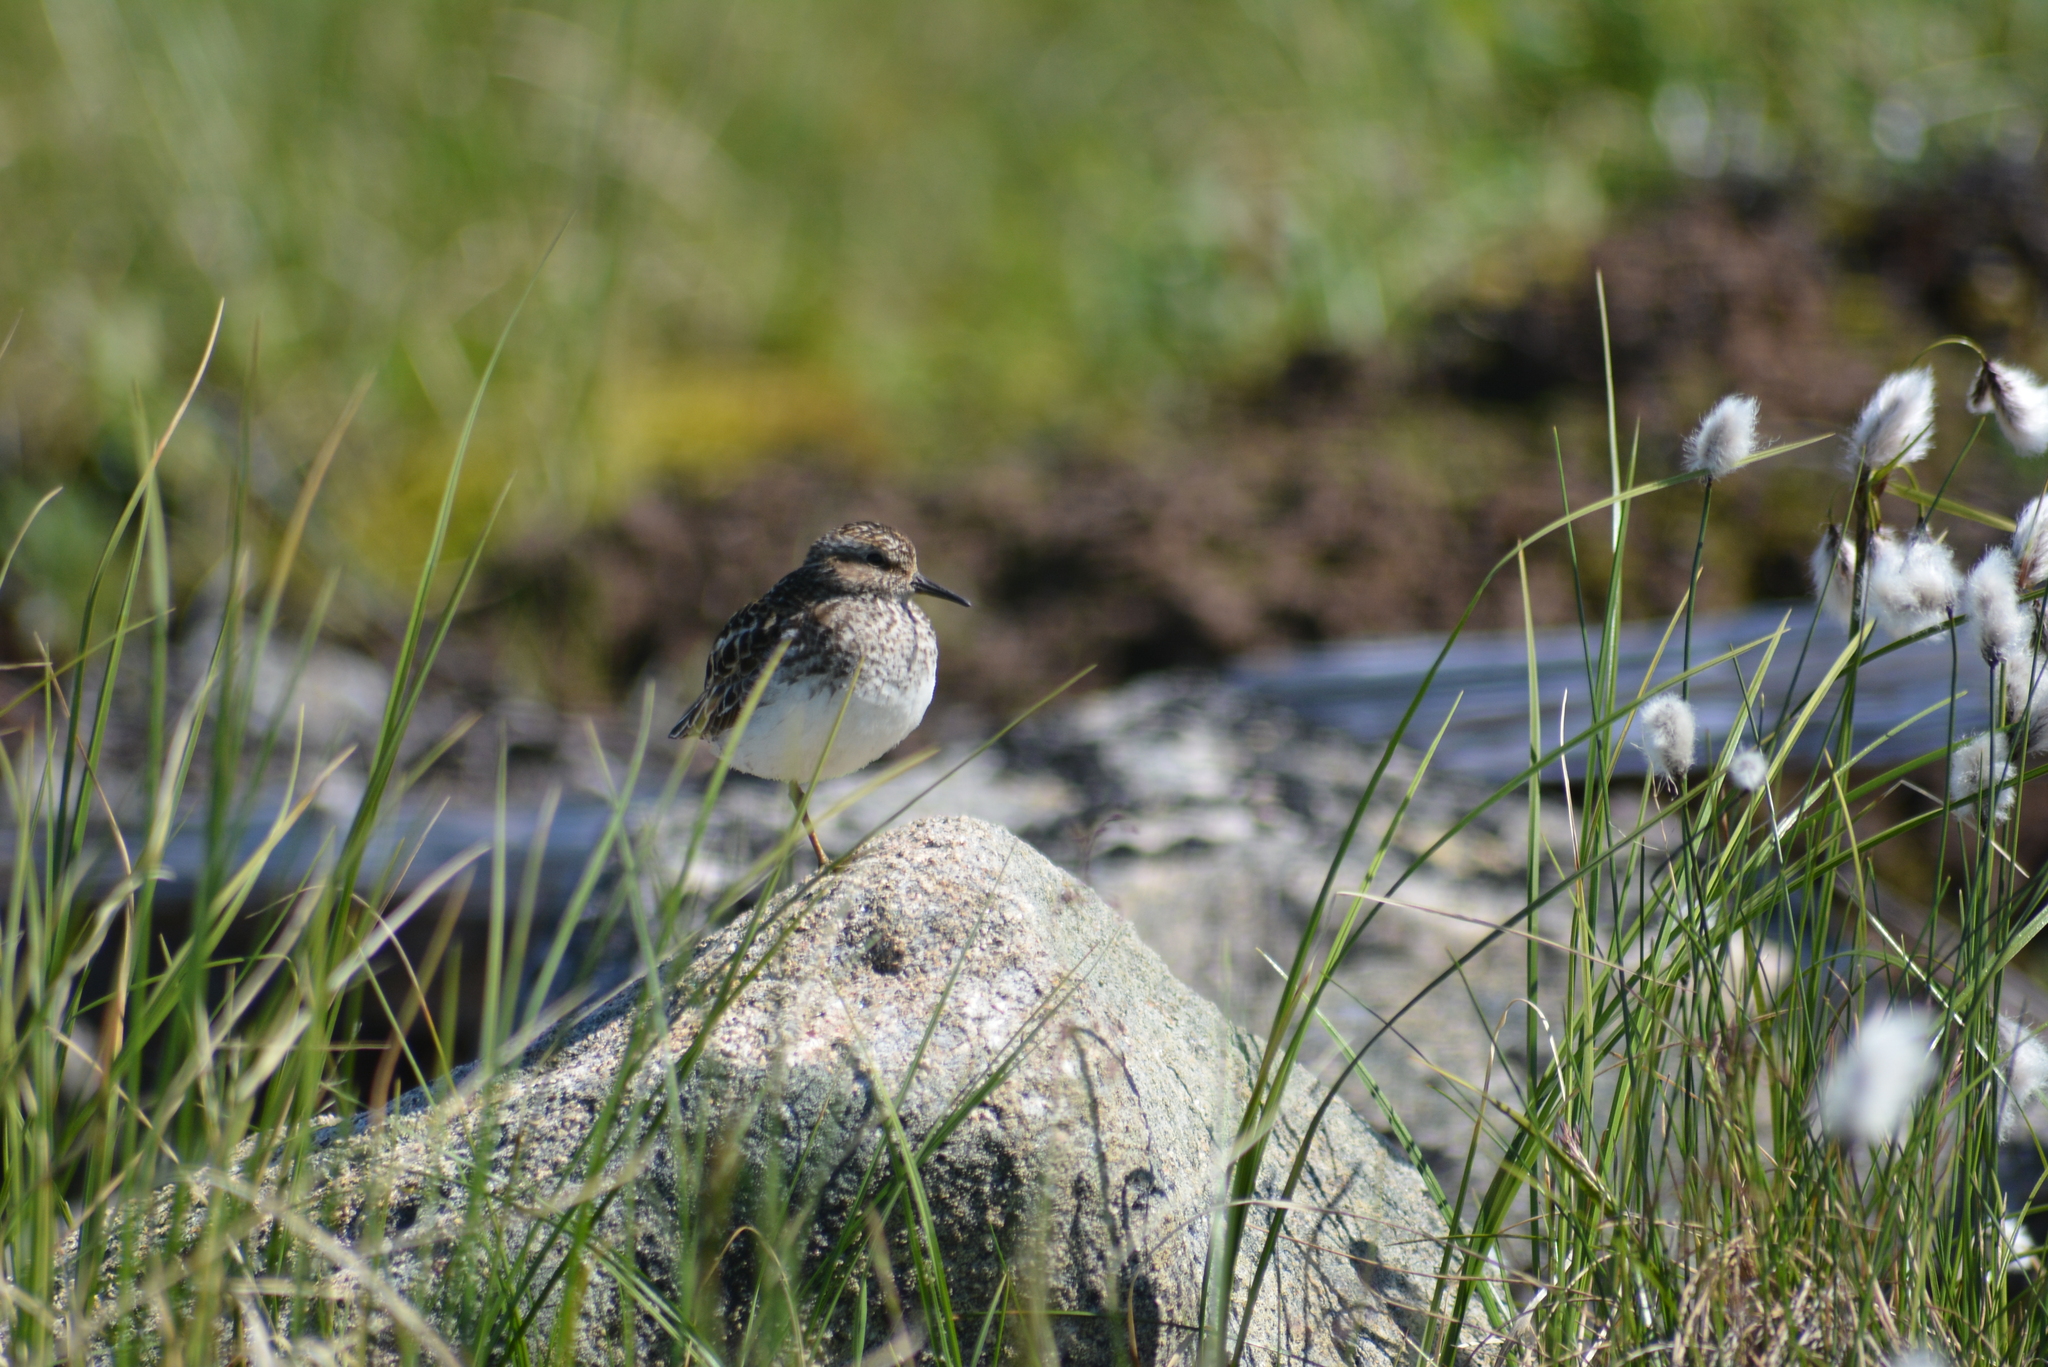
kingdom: Animalia
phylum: Chordata
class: Aves
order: Charadriiformes
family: Scolopacidae
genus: Calidris
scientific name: Calidris minutilla
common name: Least sandpiper
